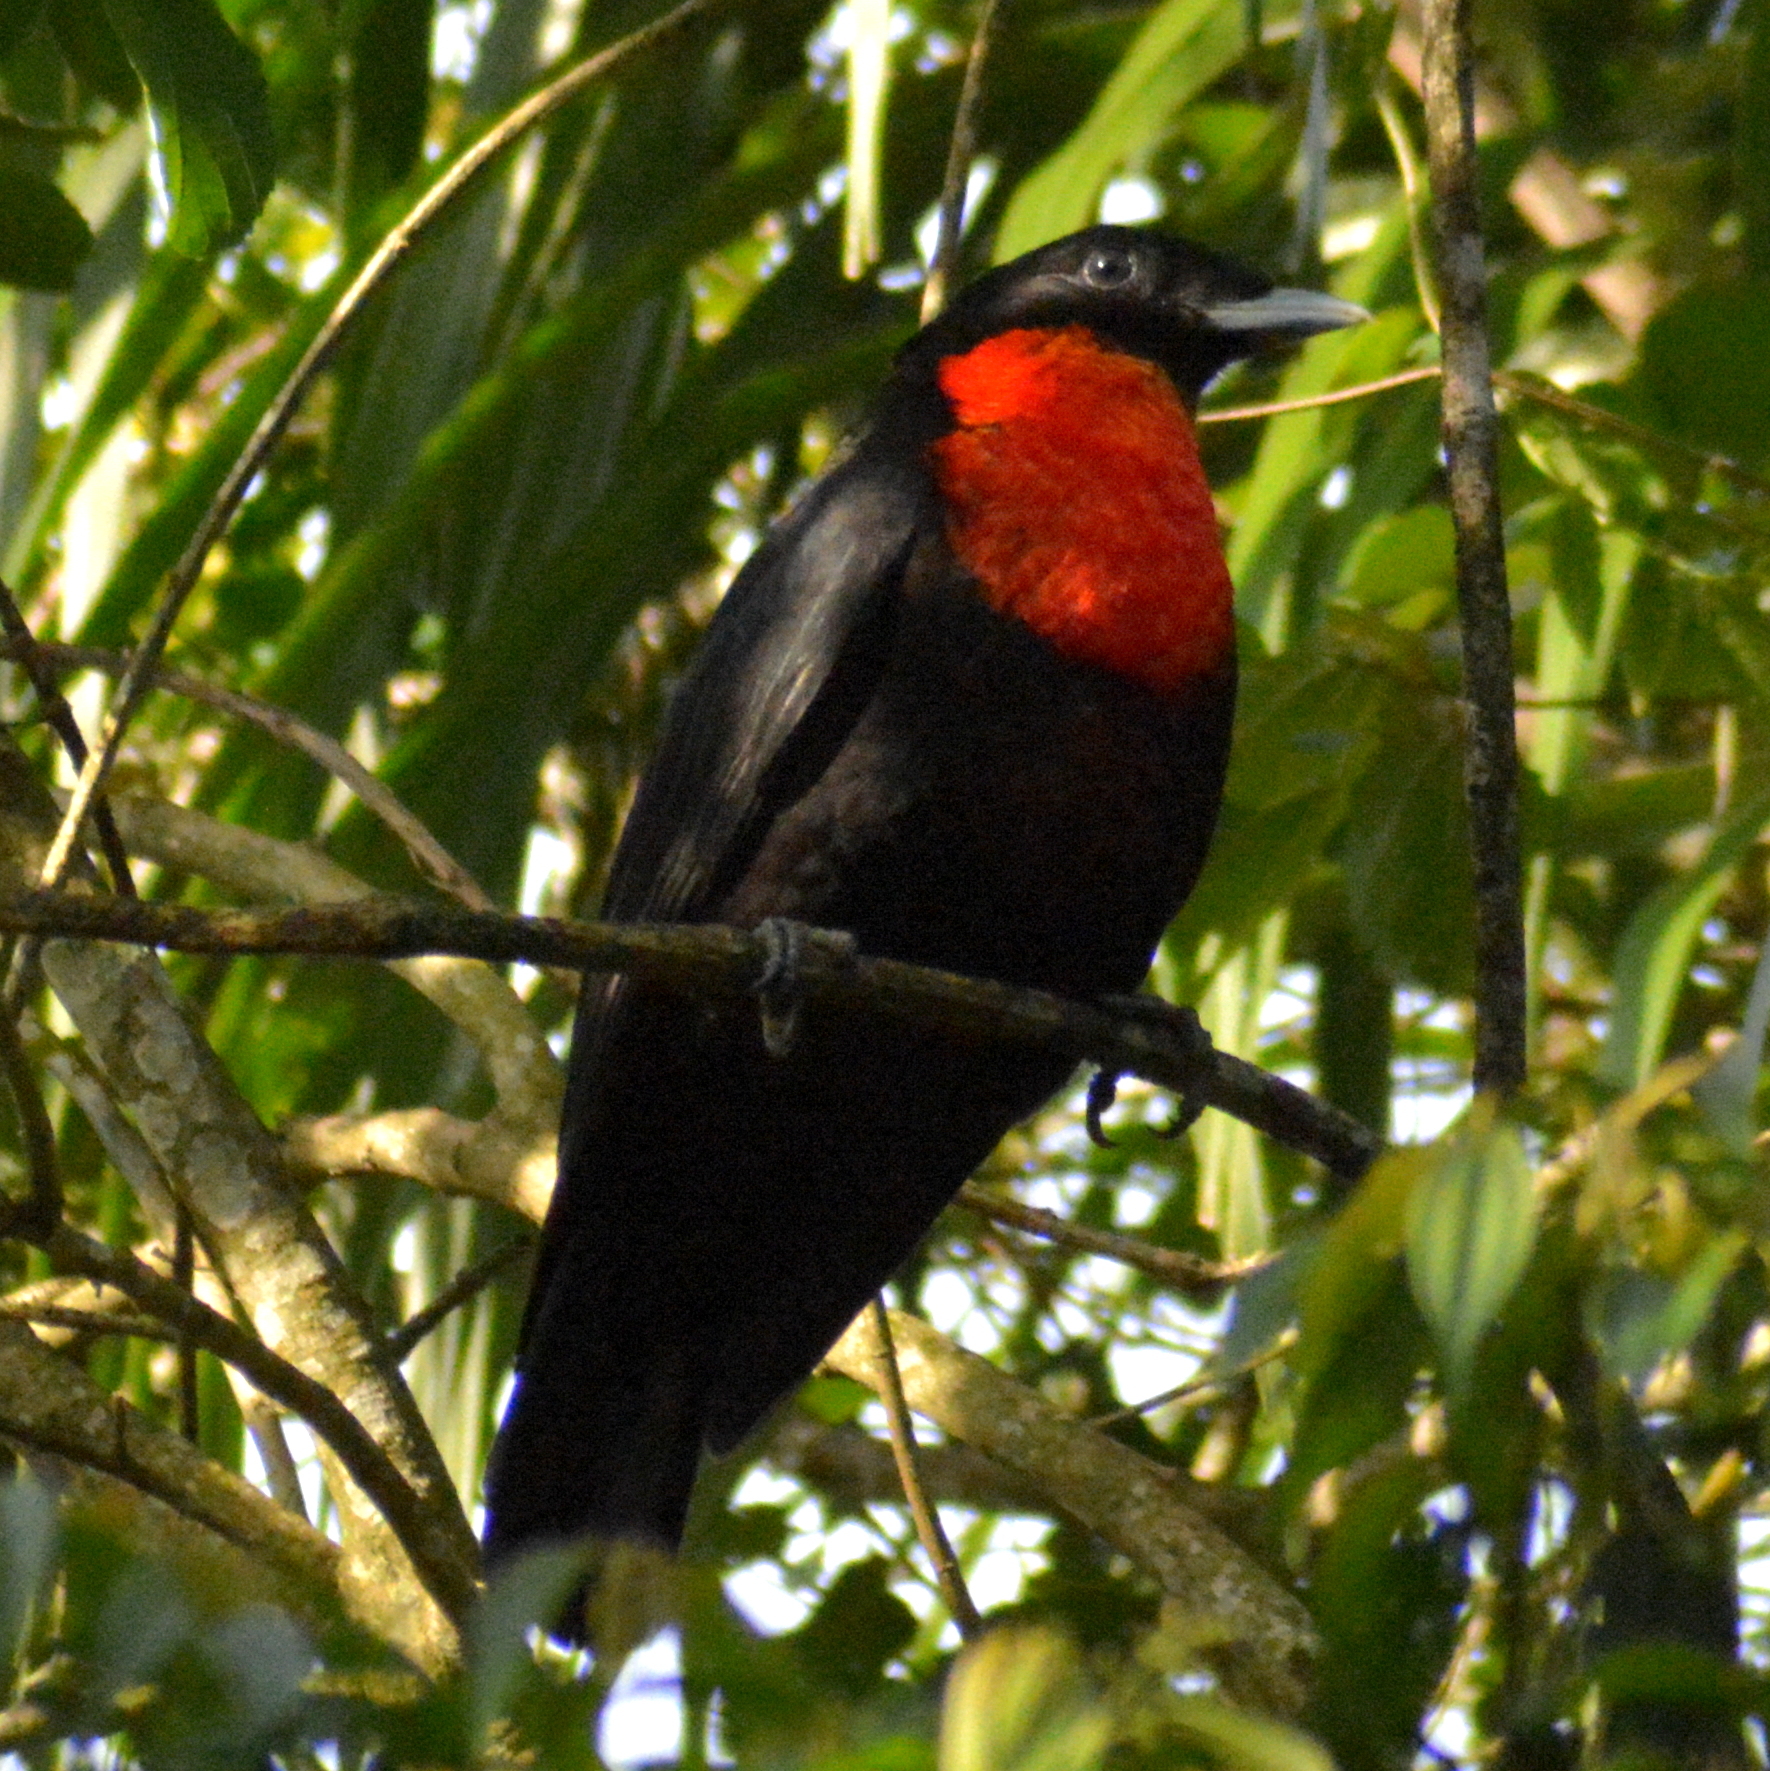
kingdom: Animalia
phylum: Chordata
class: Aves
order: Passeriformes
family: Cotingidae
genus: Pyroderus
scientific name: Pyroderus scutatus
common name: Red-ruffed fruitcrow
